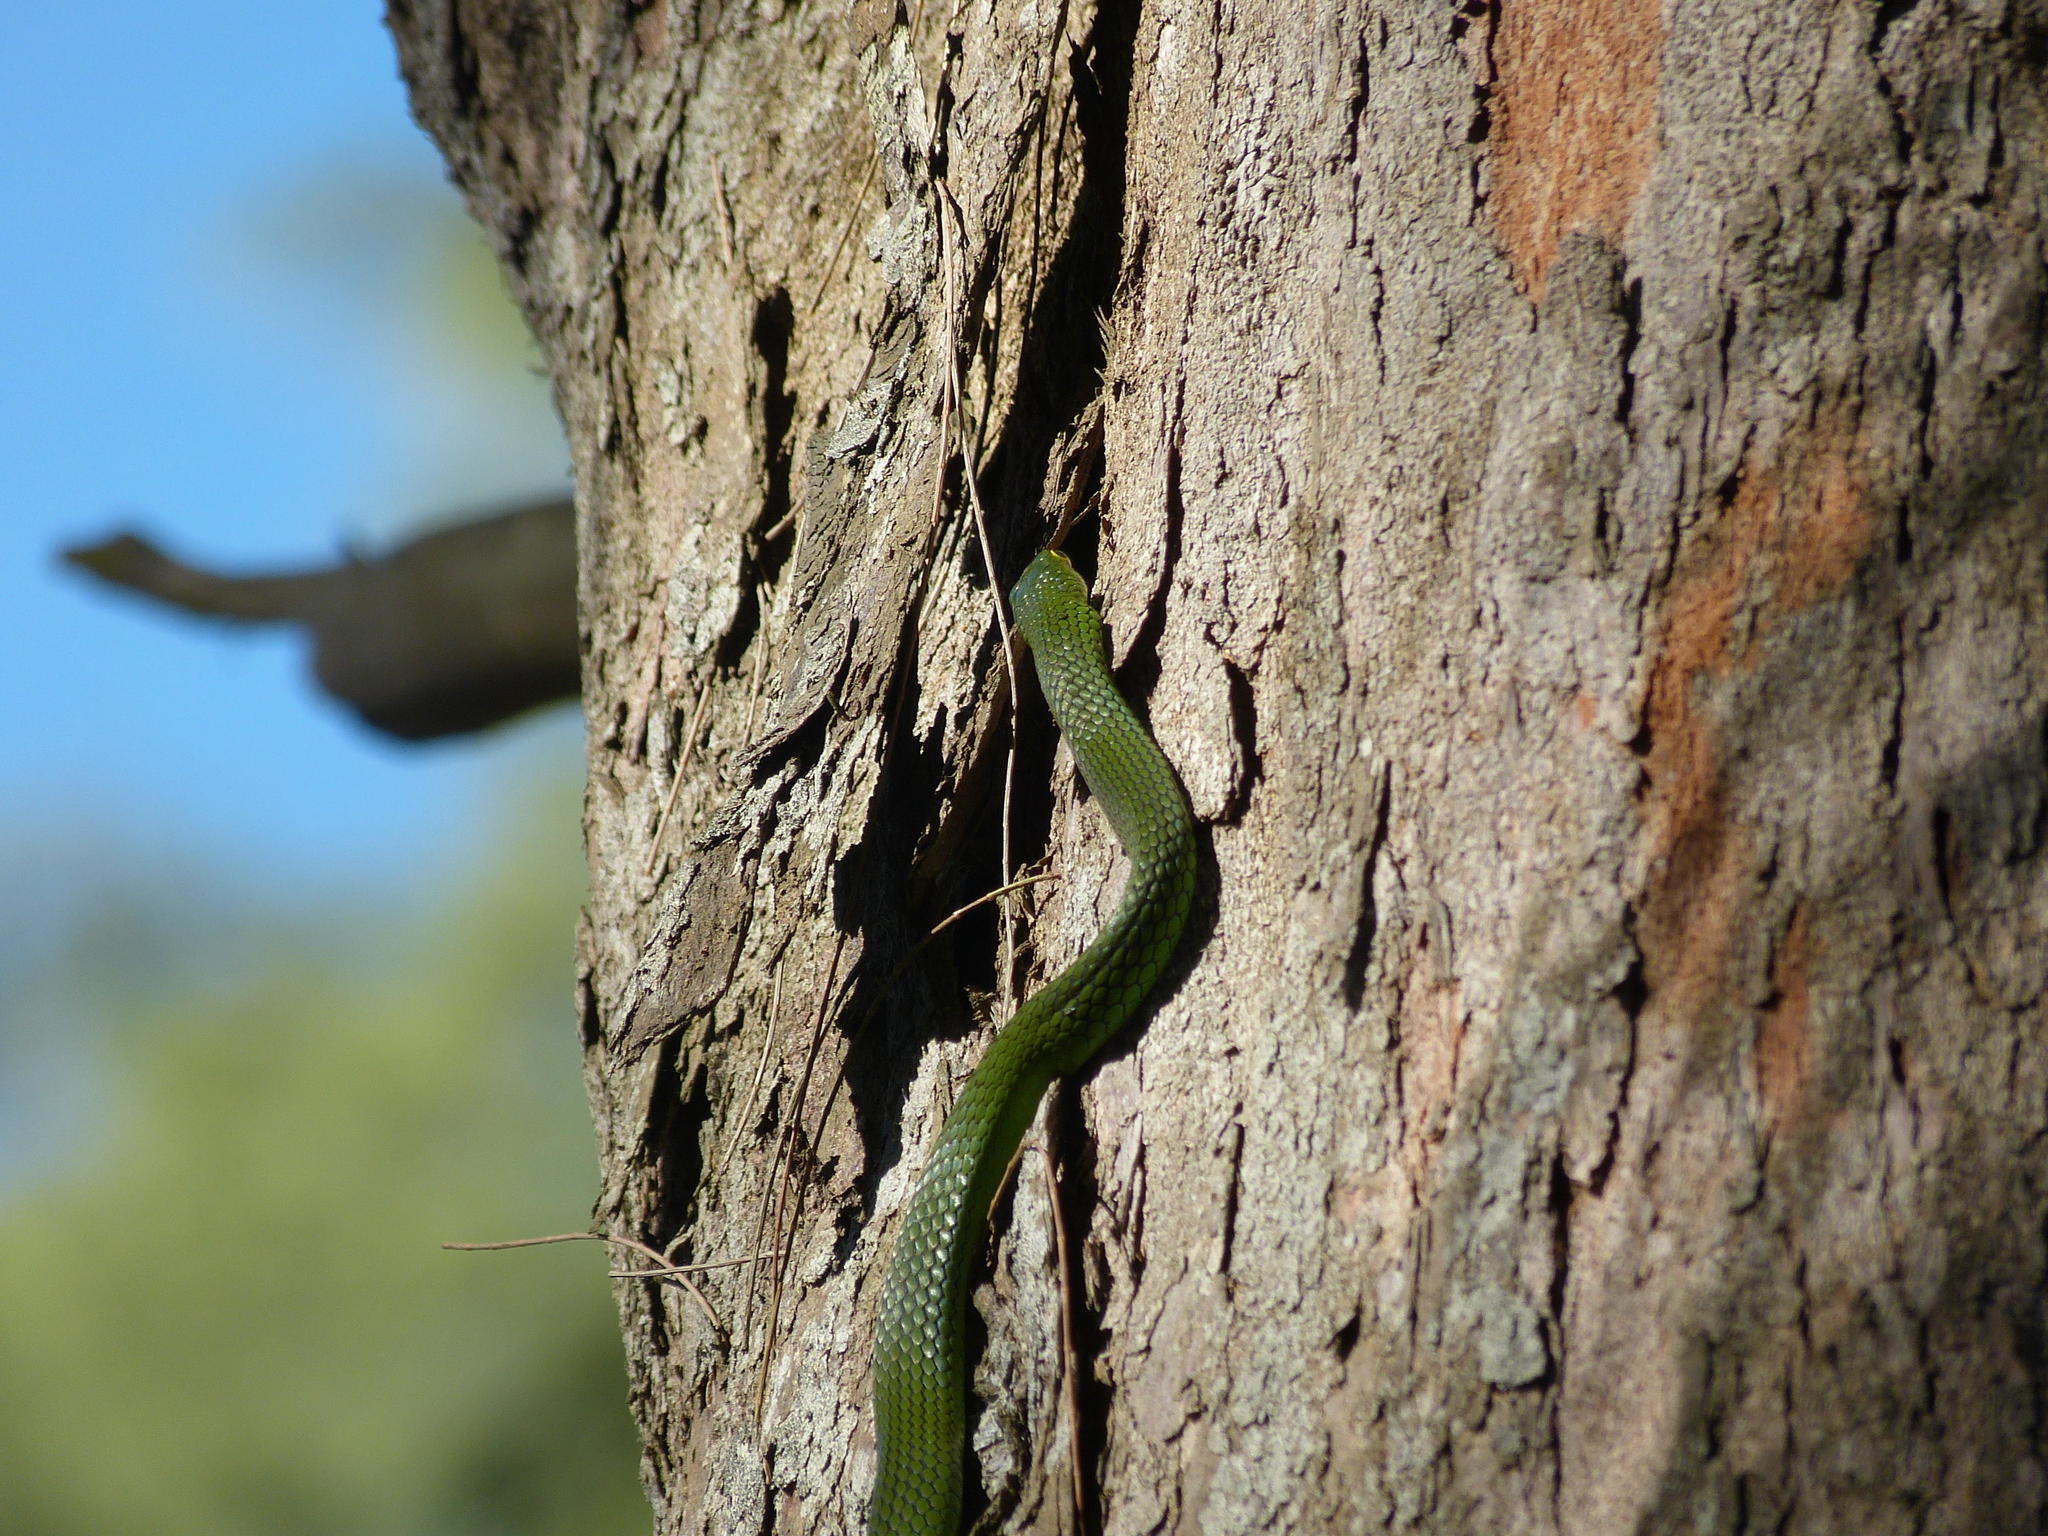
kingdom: Animalia
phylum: Chordata
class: Squamata
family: Colubridae
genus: Philothamnus
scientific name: Philothamnus natalensis
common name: Eastern natal green snake
